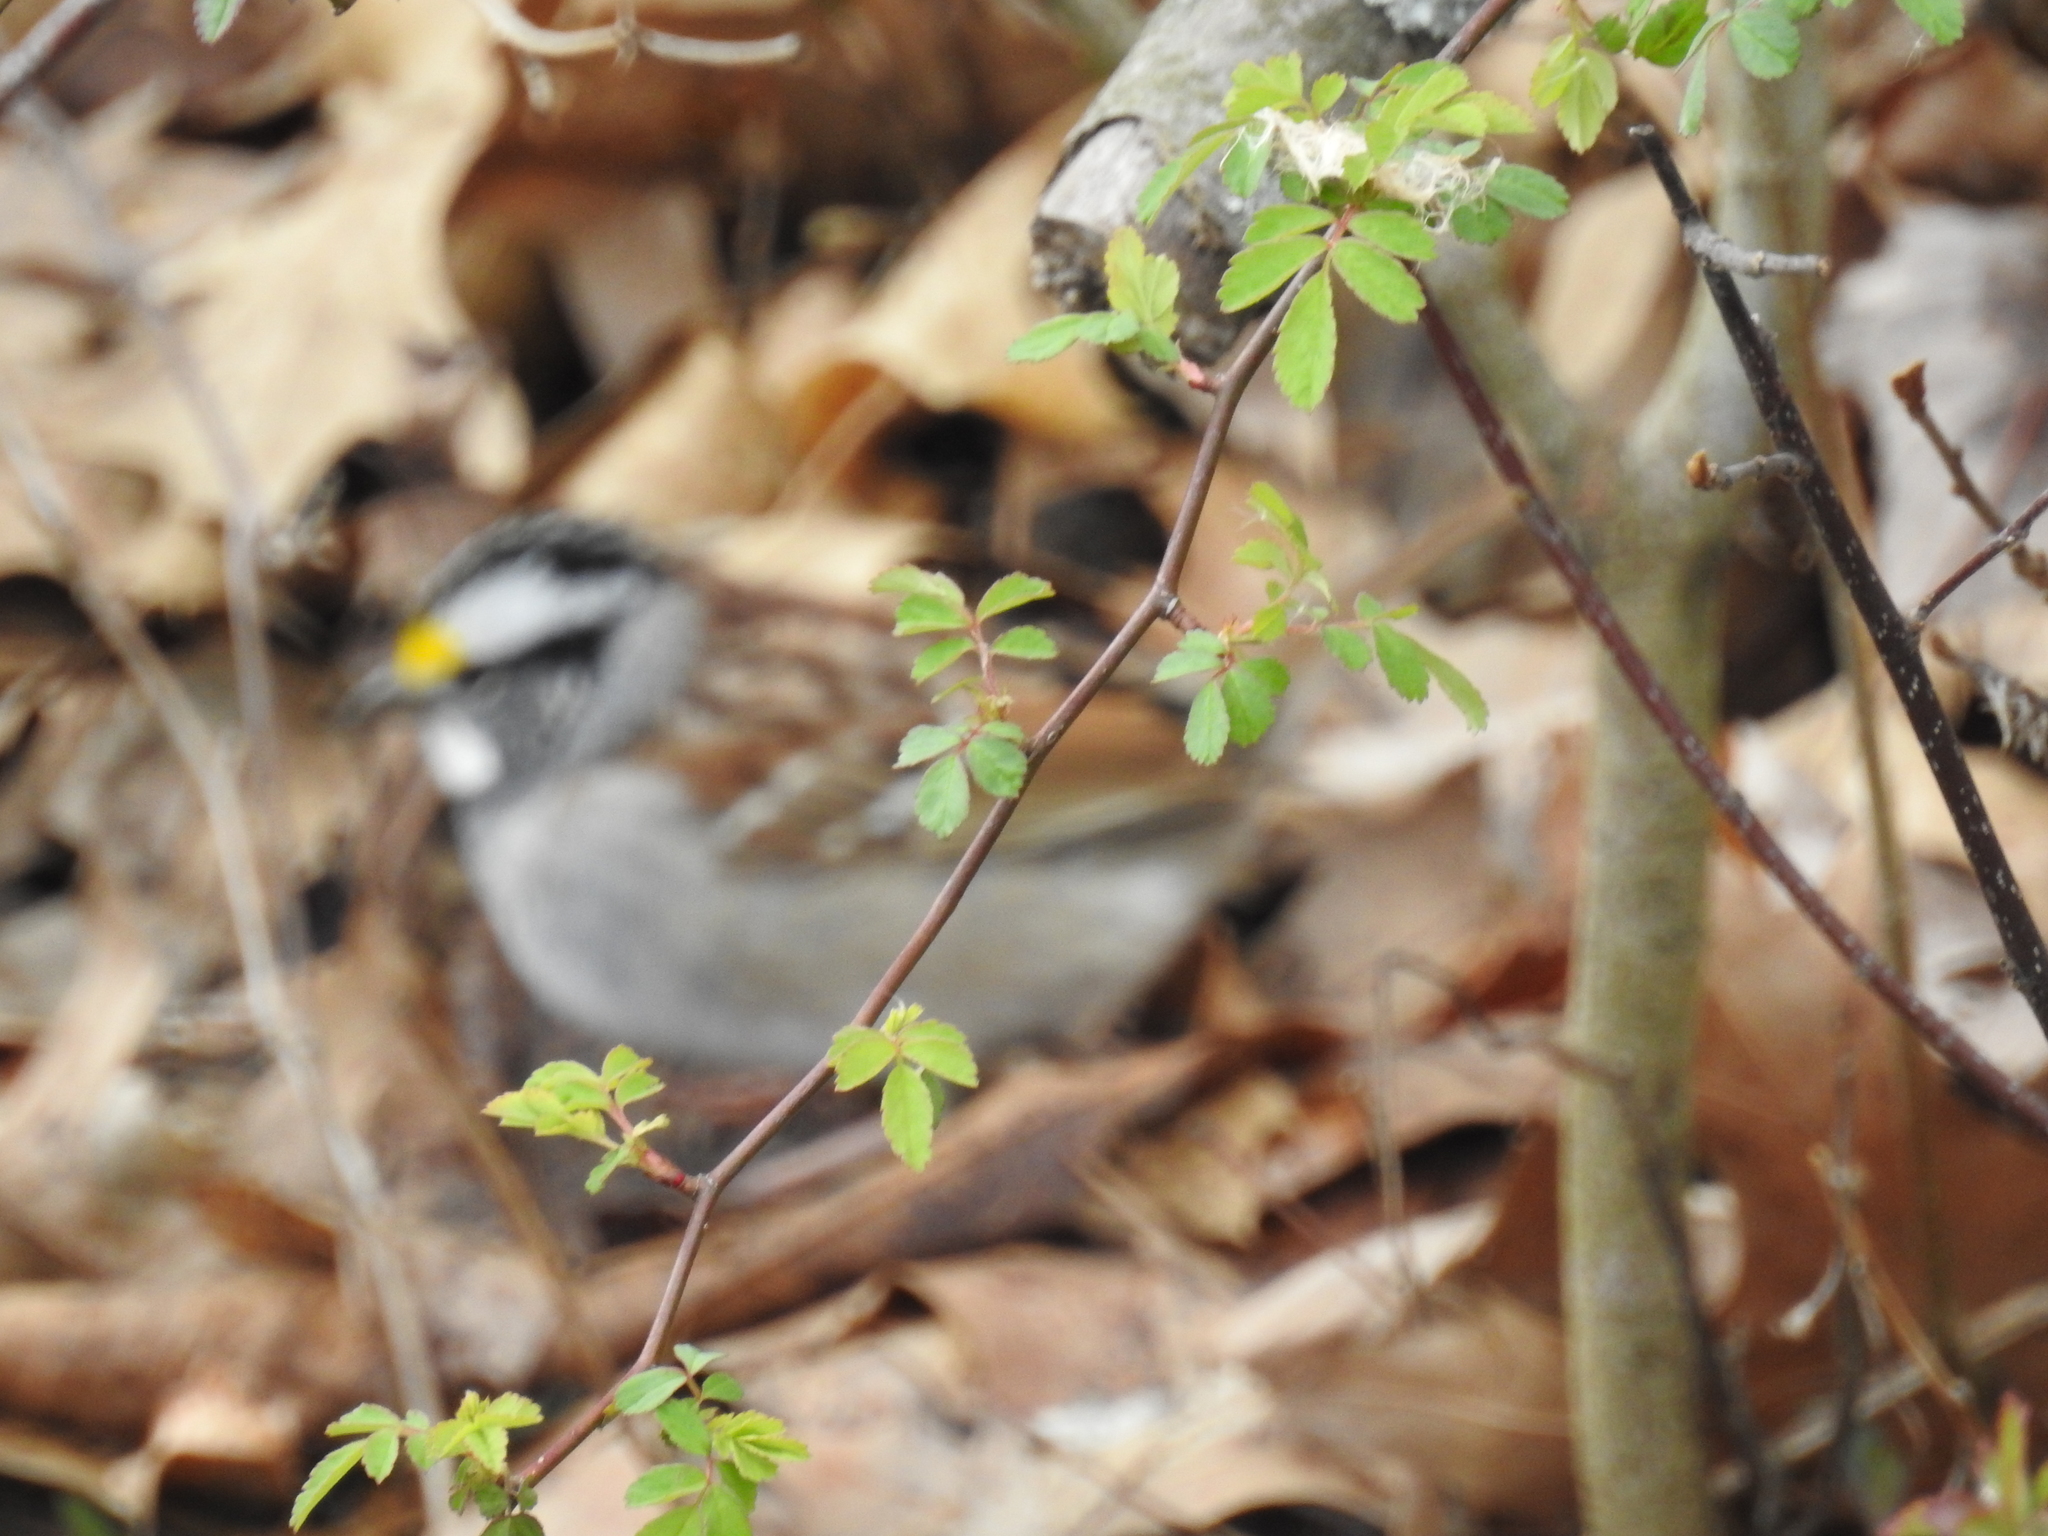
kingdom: Animalia
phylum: Chordata
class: Aves
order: Passeriformes
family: Passerellidae
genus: Zonotrichia
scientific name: Zonotrichia albicollis
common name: White-throated sparrow
